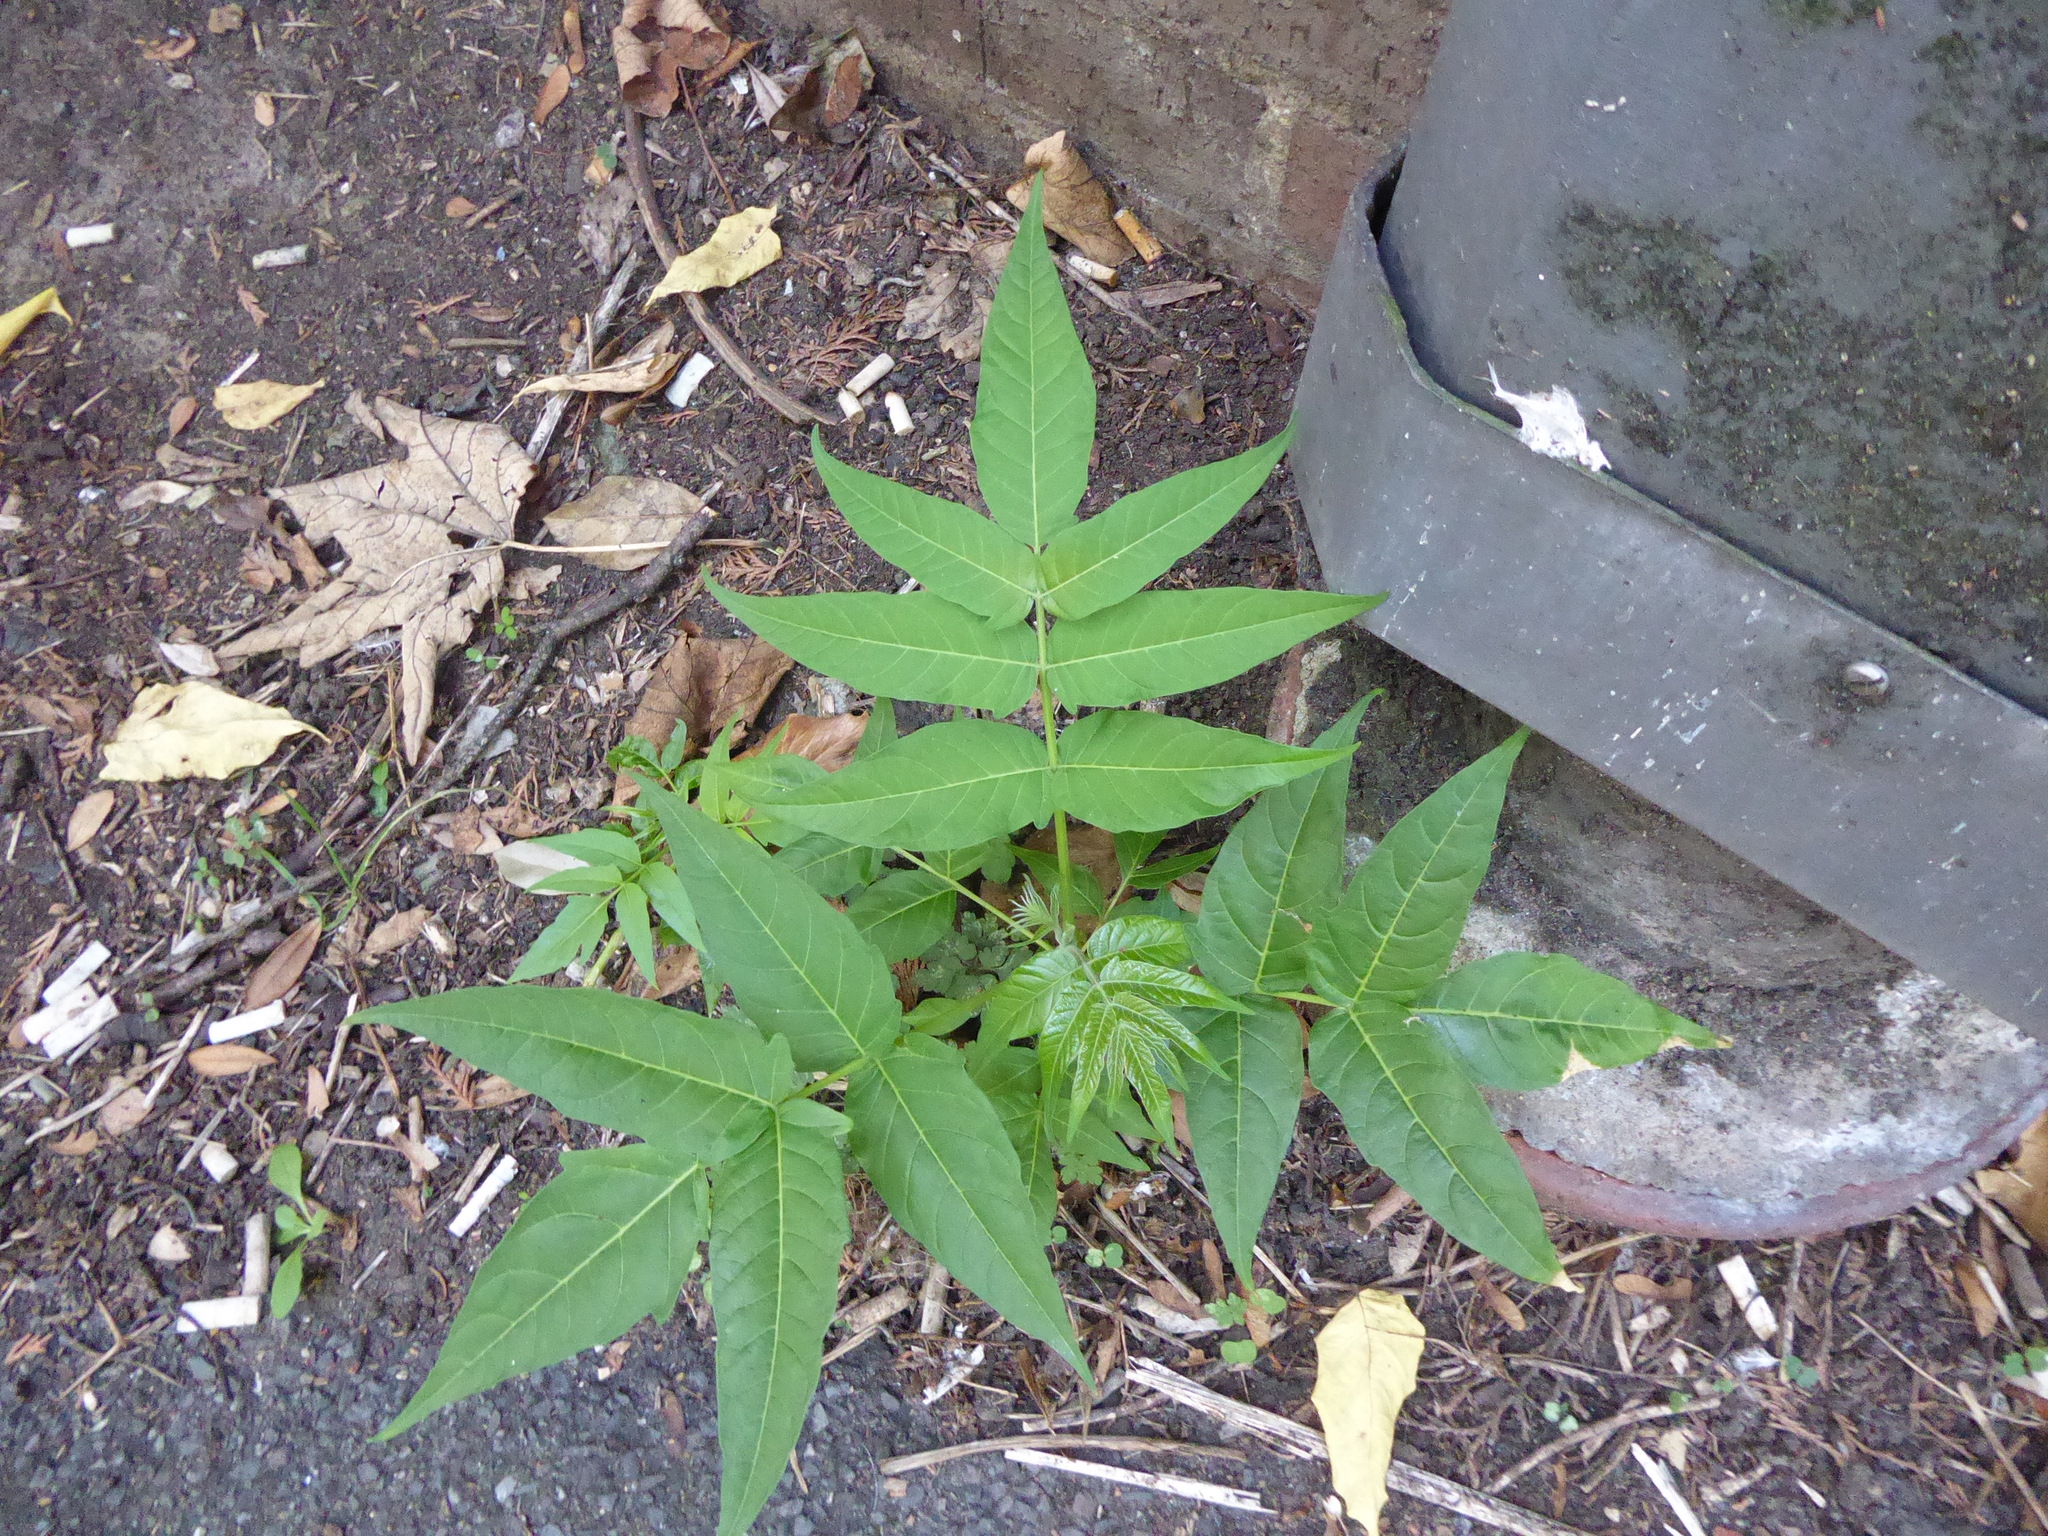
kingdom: Plantae
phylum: Tracheophyta
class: Magnoliopsida
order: Sapindales
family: Simaroubaceae
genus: Ailanthus
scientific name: Ailanthus altissima
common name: Tree-of-heaven
